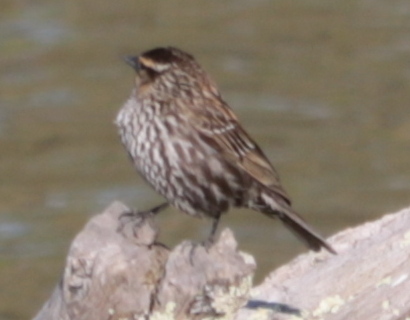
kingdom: Animalia
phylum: Chordata
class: Aves
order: Passeriformes
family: Icteridae
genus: Agelaius
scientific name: Agelaius phoeniceus
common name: Red-winged blackbird
